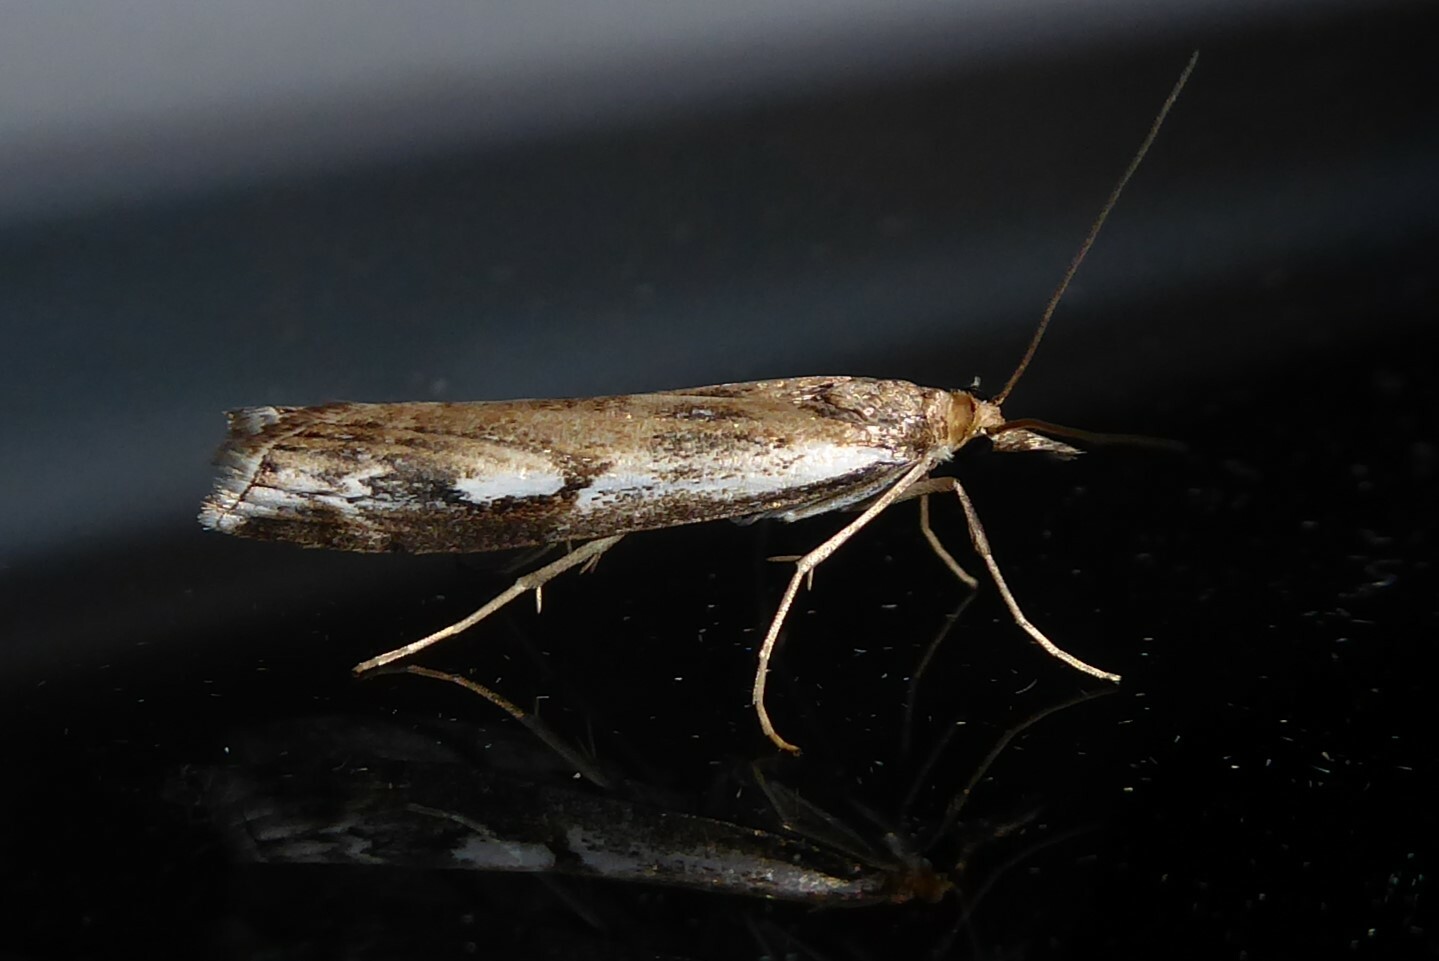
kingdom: Animalia
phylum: Arthropoda
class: Insecta
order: Lepidoptera
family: Crambidae
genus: Orocrambus
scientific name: Orocrambus vulgaris
